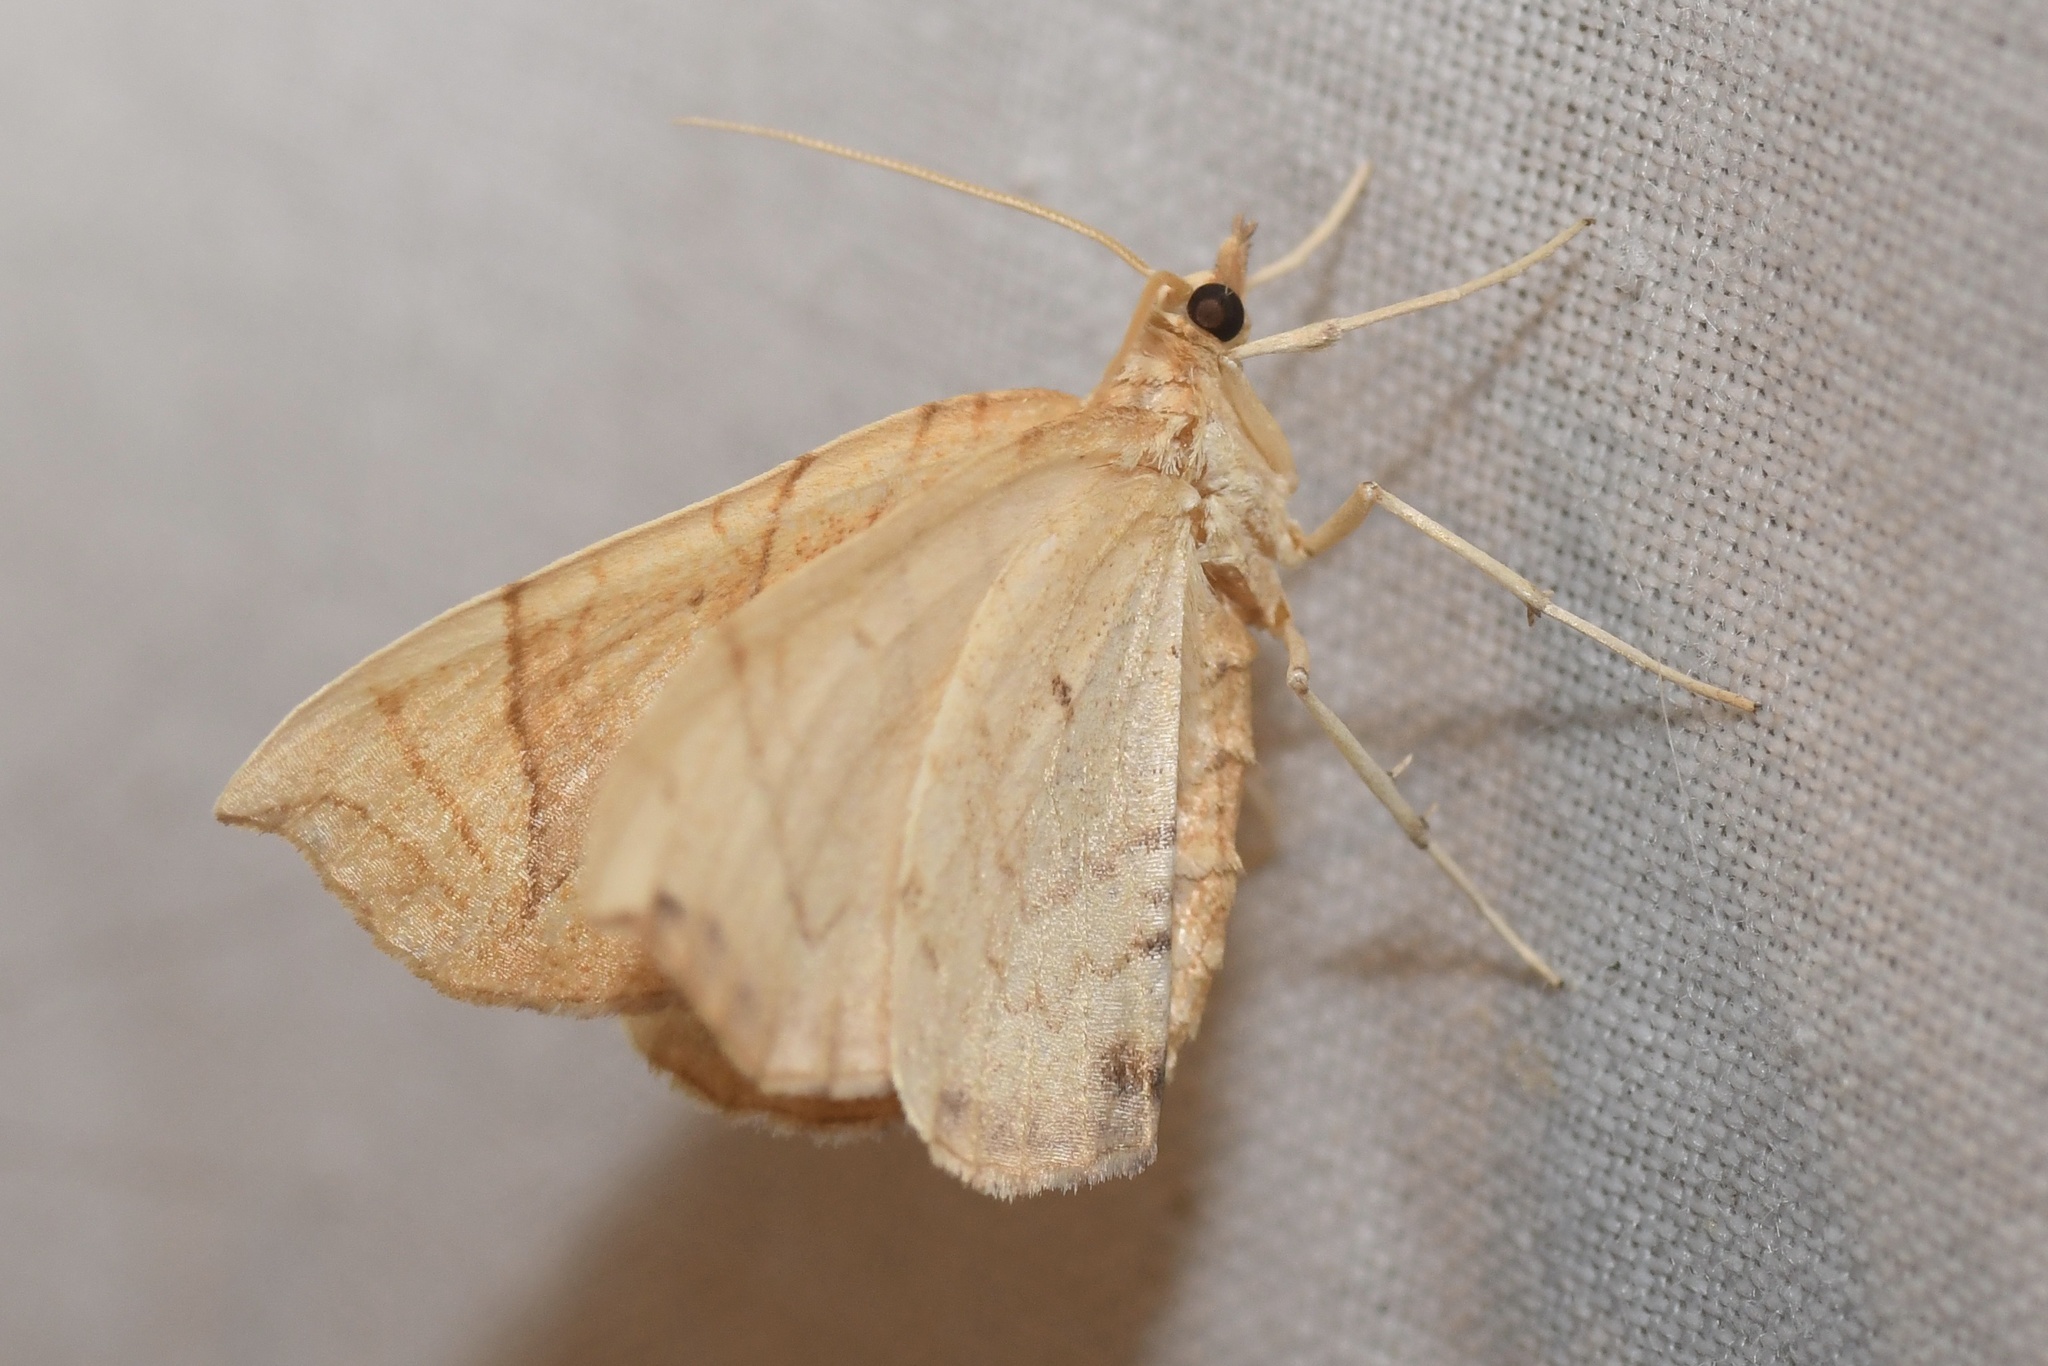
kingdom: Animalia
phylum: Arthropoda
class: Insecta
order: Lepidoptera
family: Geometridae
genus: Eulithis
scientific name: Eulithis
